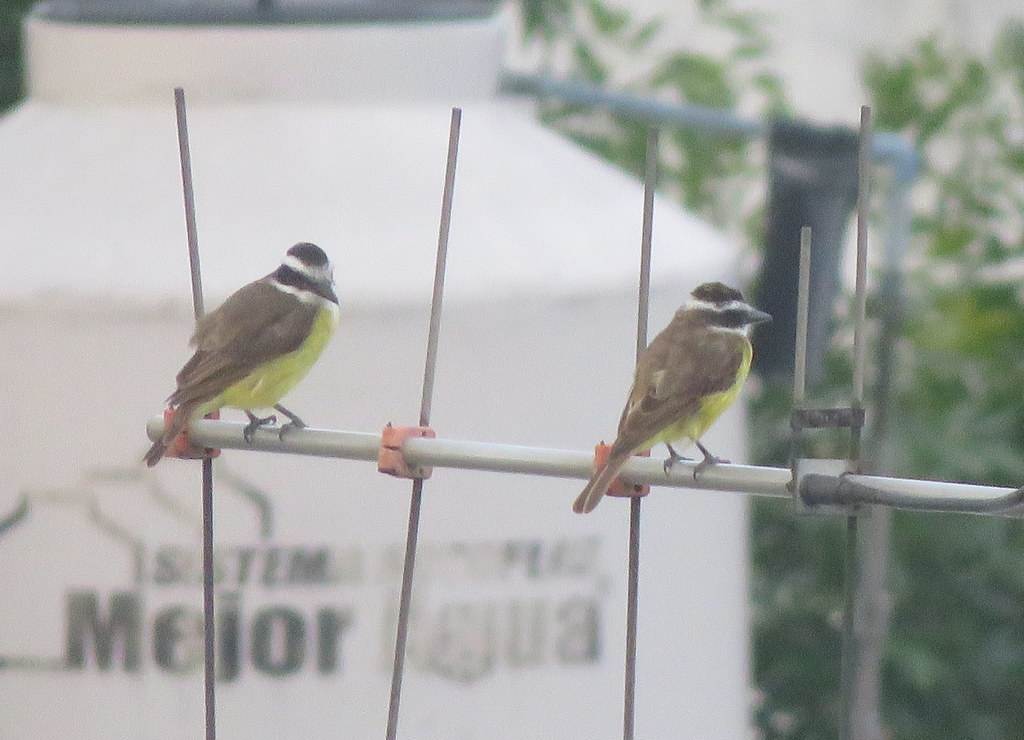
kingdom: Animalia
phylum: Chordata
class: Aves
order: Passeriformes
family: Tyrannidae
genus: Pitangus
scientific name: Pitangus sulphuratus
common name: Great kiskadee
